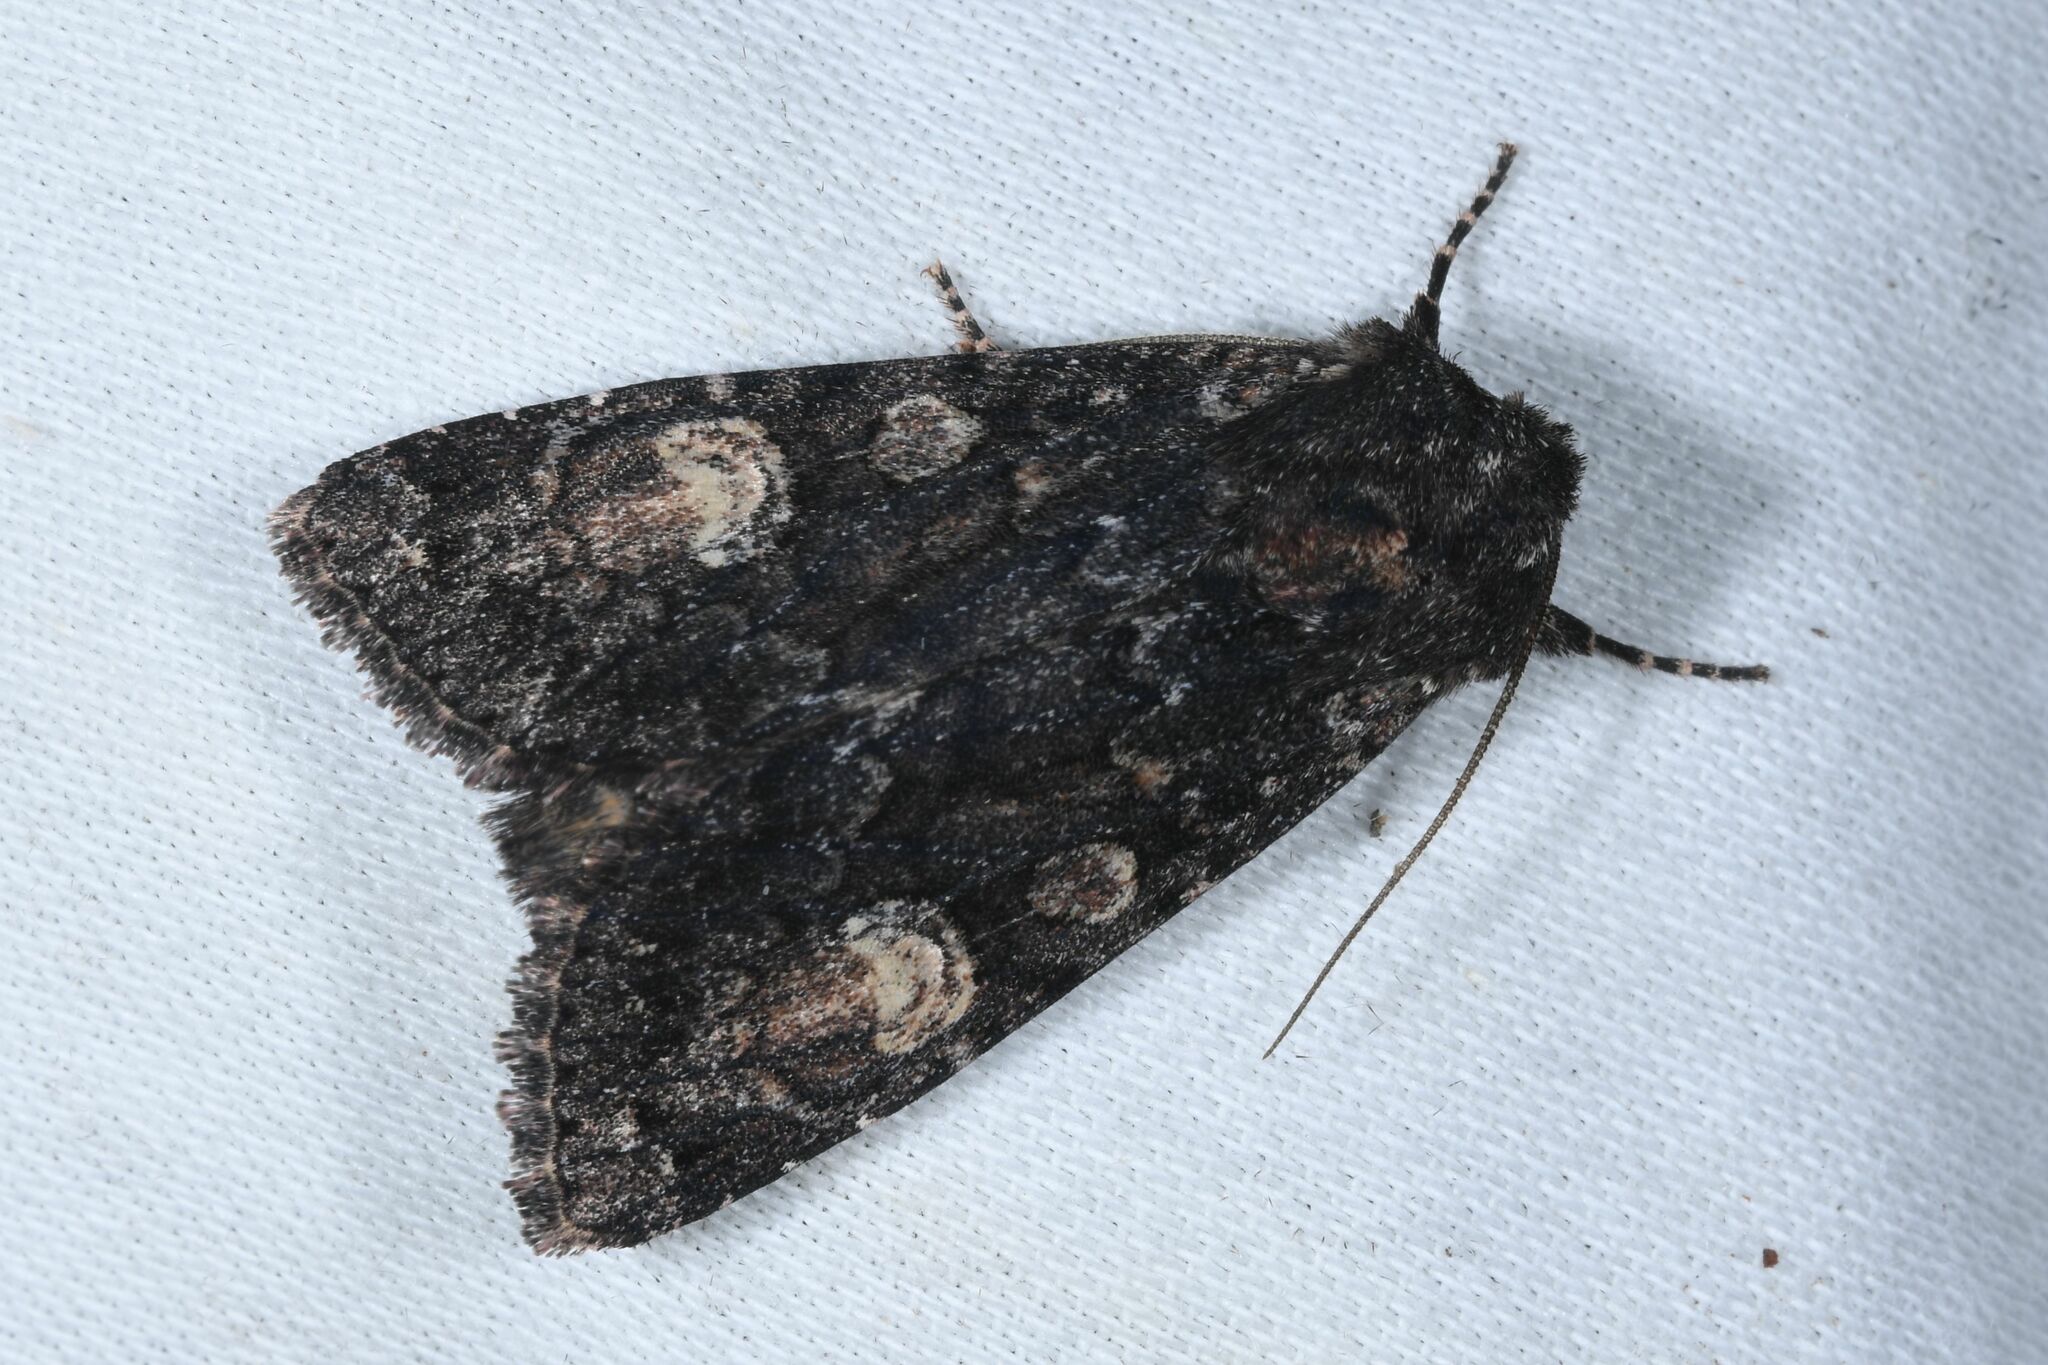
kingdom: Animalia
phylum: Arthropoda
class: Insecta
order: Lepidoptera
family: Noctuidae
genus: Apamea
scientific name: Apamea rubrirena
